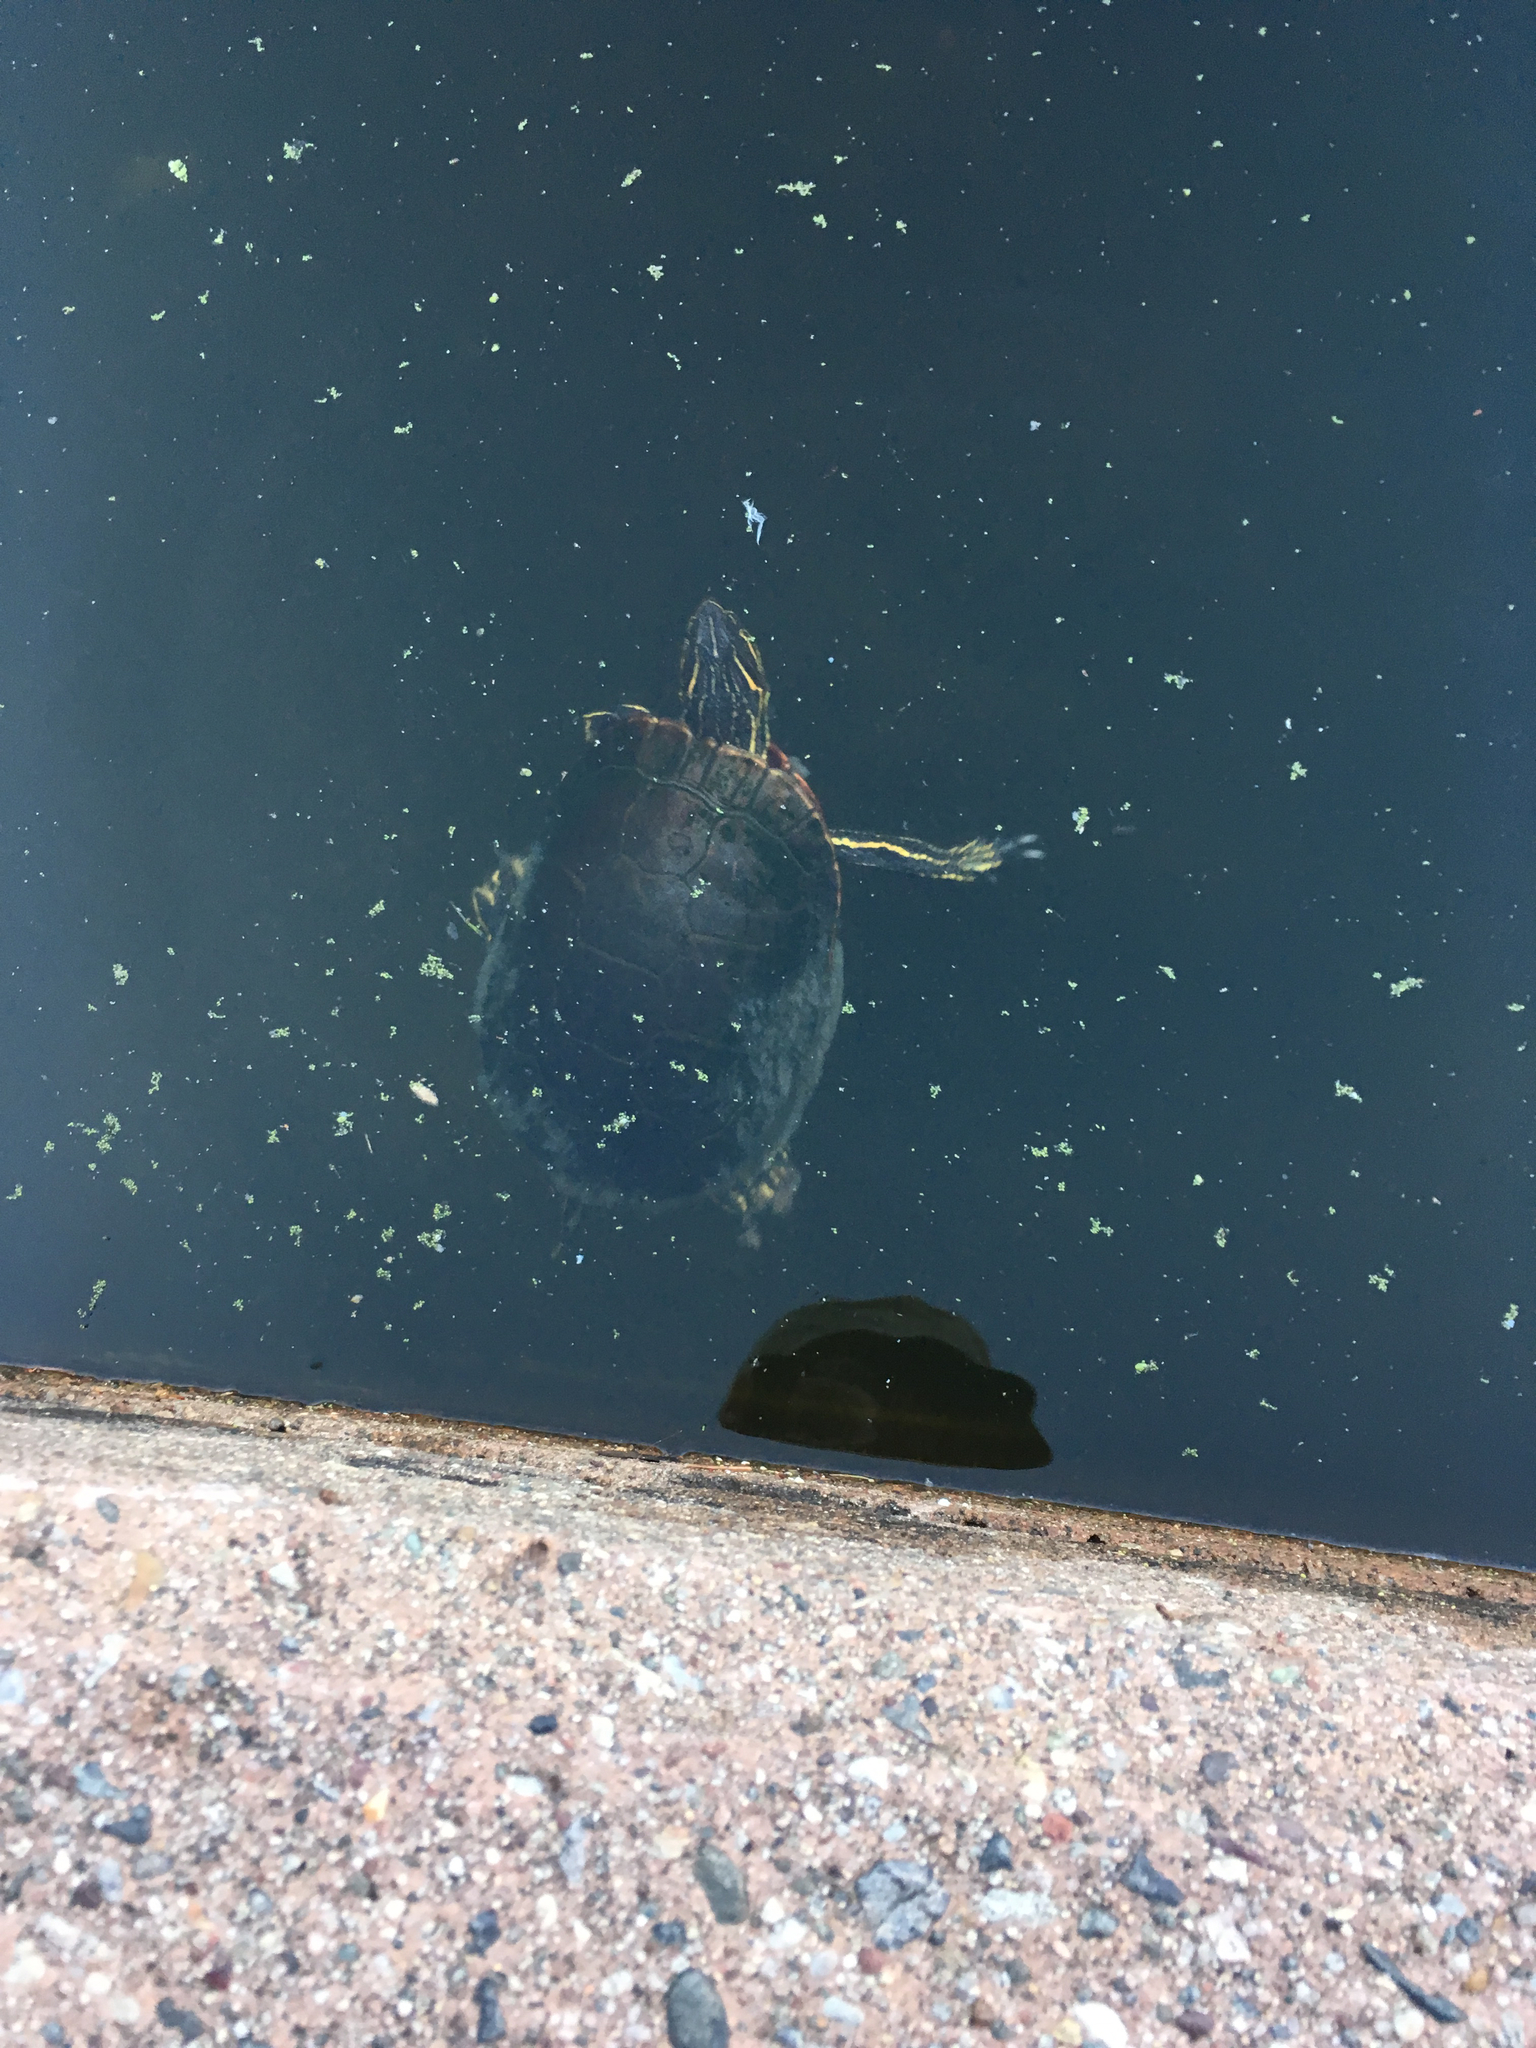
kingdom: Animalia
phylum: Chordata
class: Testudines
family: Emydidae
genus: Chrysemys
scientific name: Chrysemys picta
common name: Painted turtle
